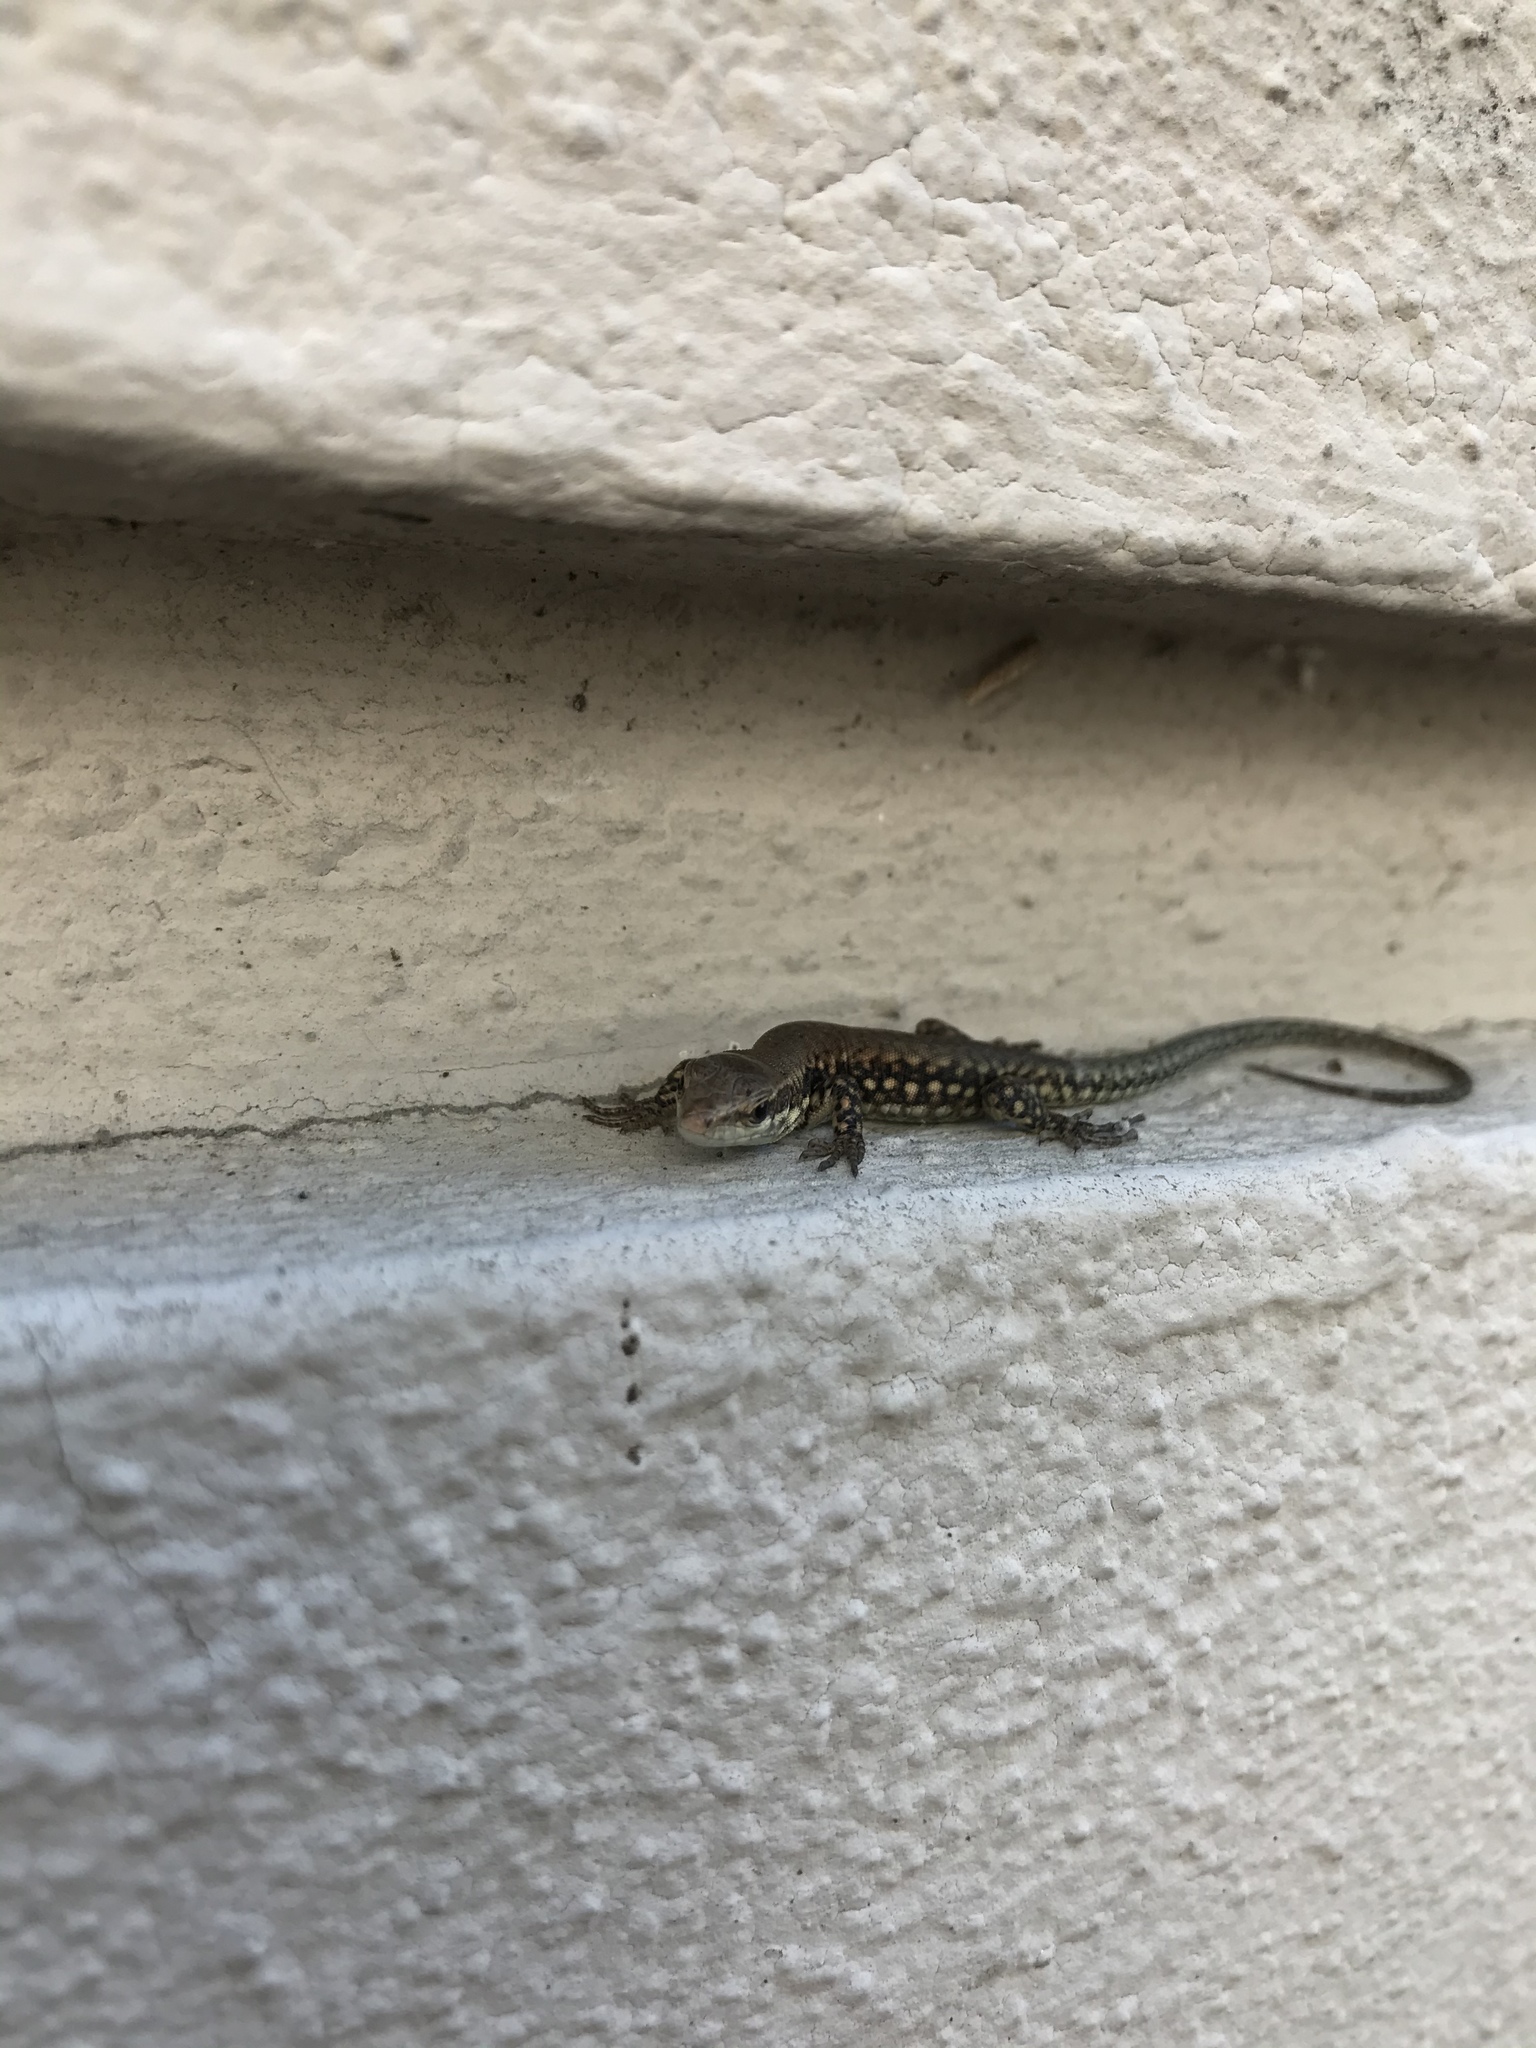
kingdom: Animalia
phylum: Chordata
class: Squamata
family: Lacertidae
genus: Podarcis
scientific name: Podarcis muralis
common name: Common wall lizard
